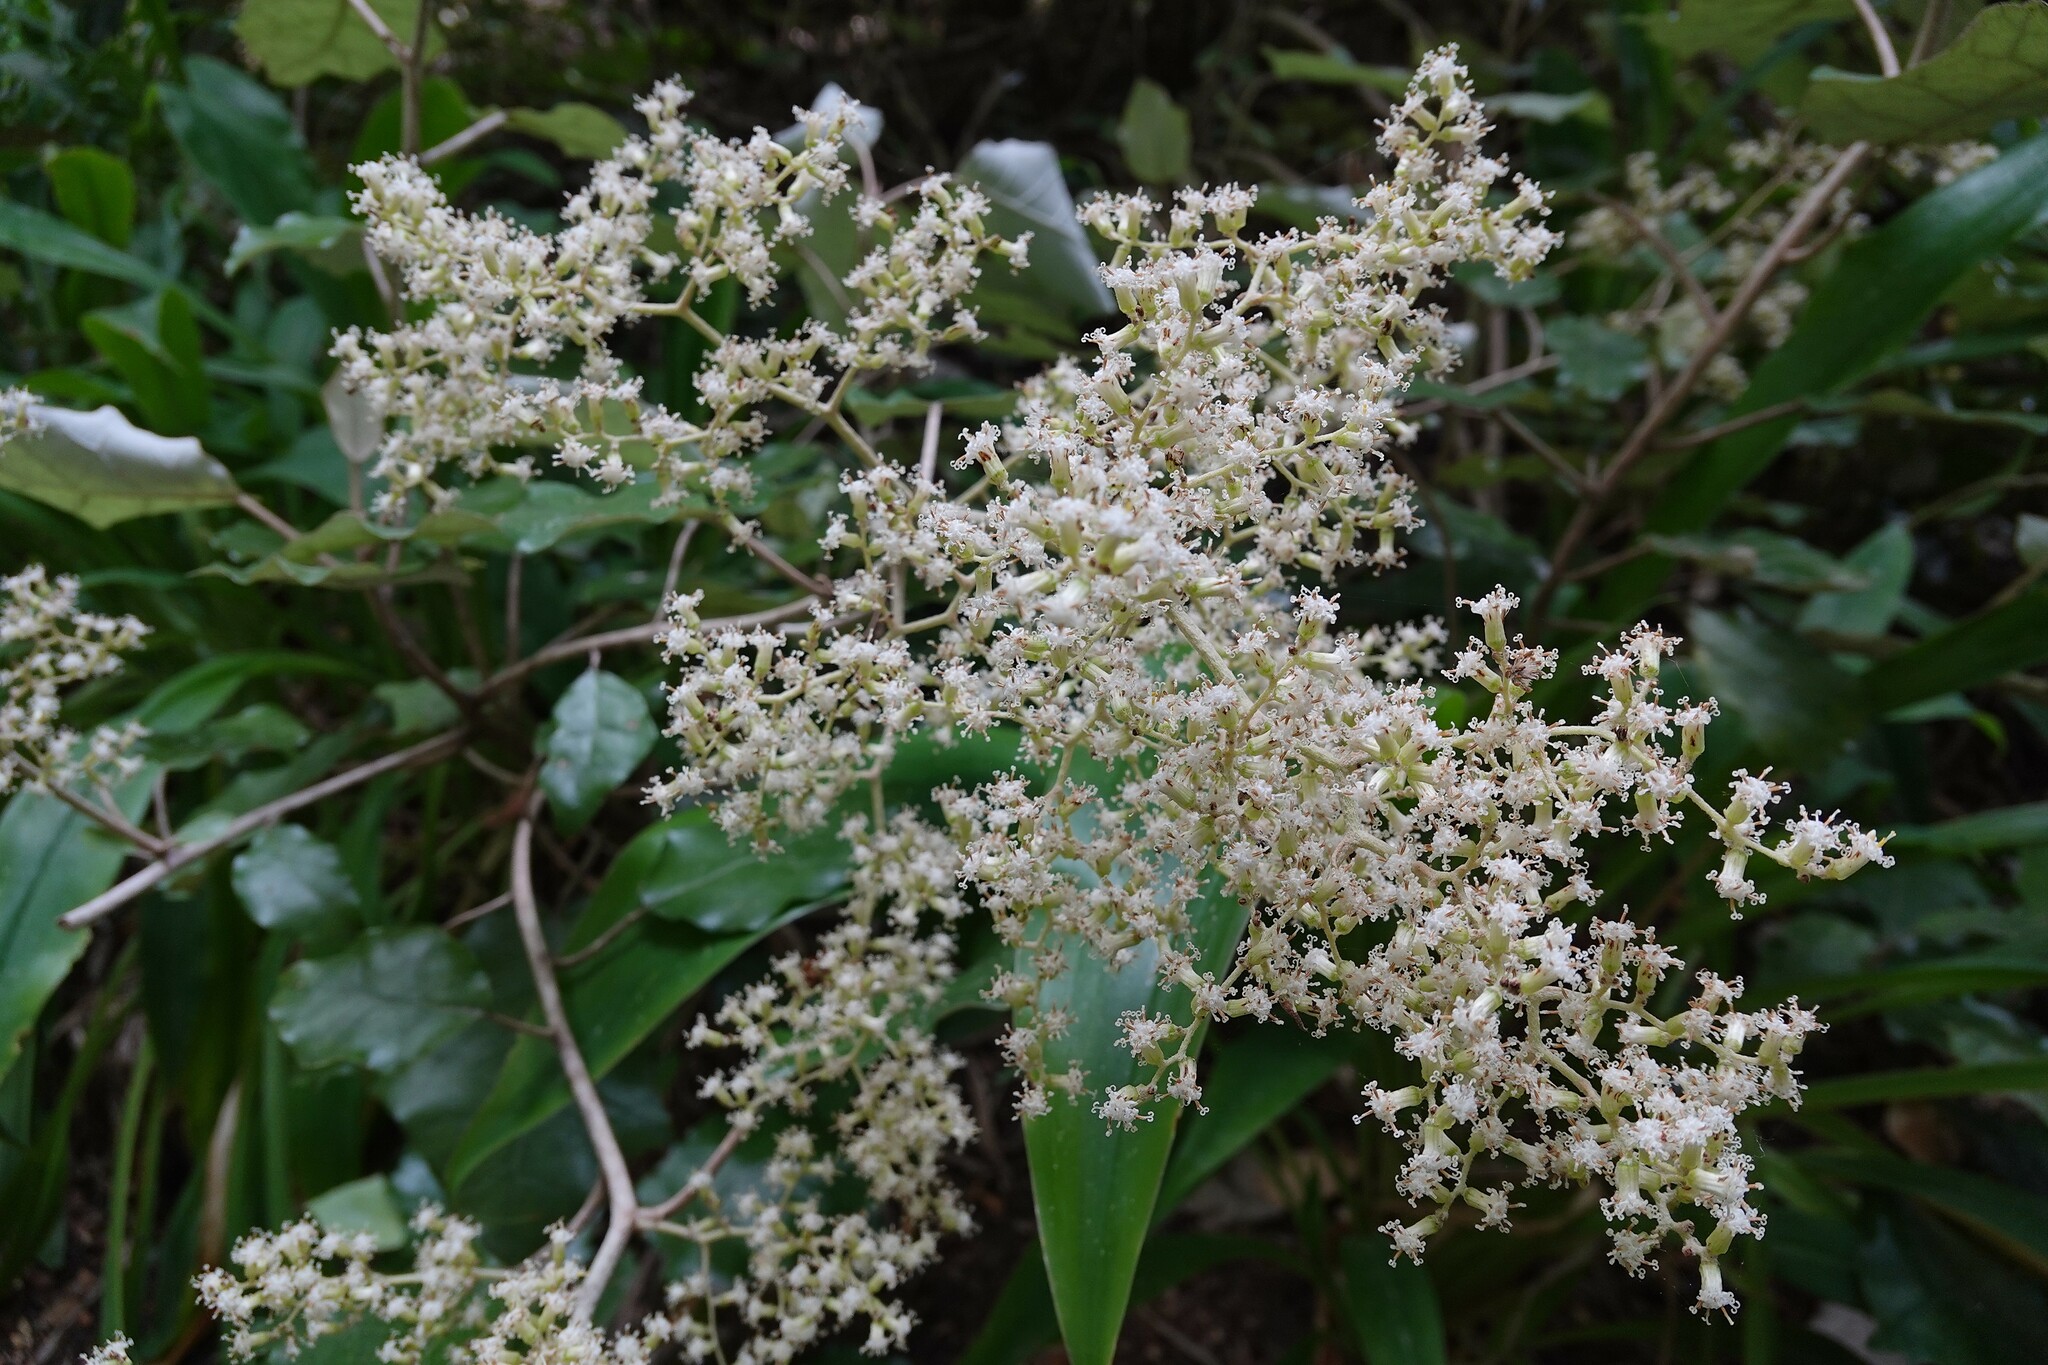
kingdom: Plantae
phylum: Tracheophyta
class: Magnoliopsida
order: Asterales
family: Asteraceae
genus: Brachyglottis
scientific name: Brachyglottis repanda
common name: Hedge ragwort
